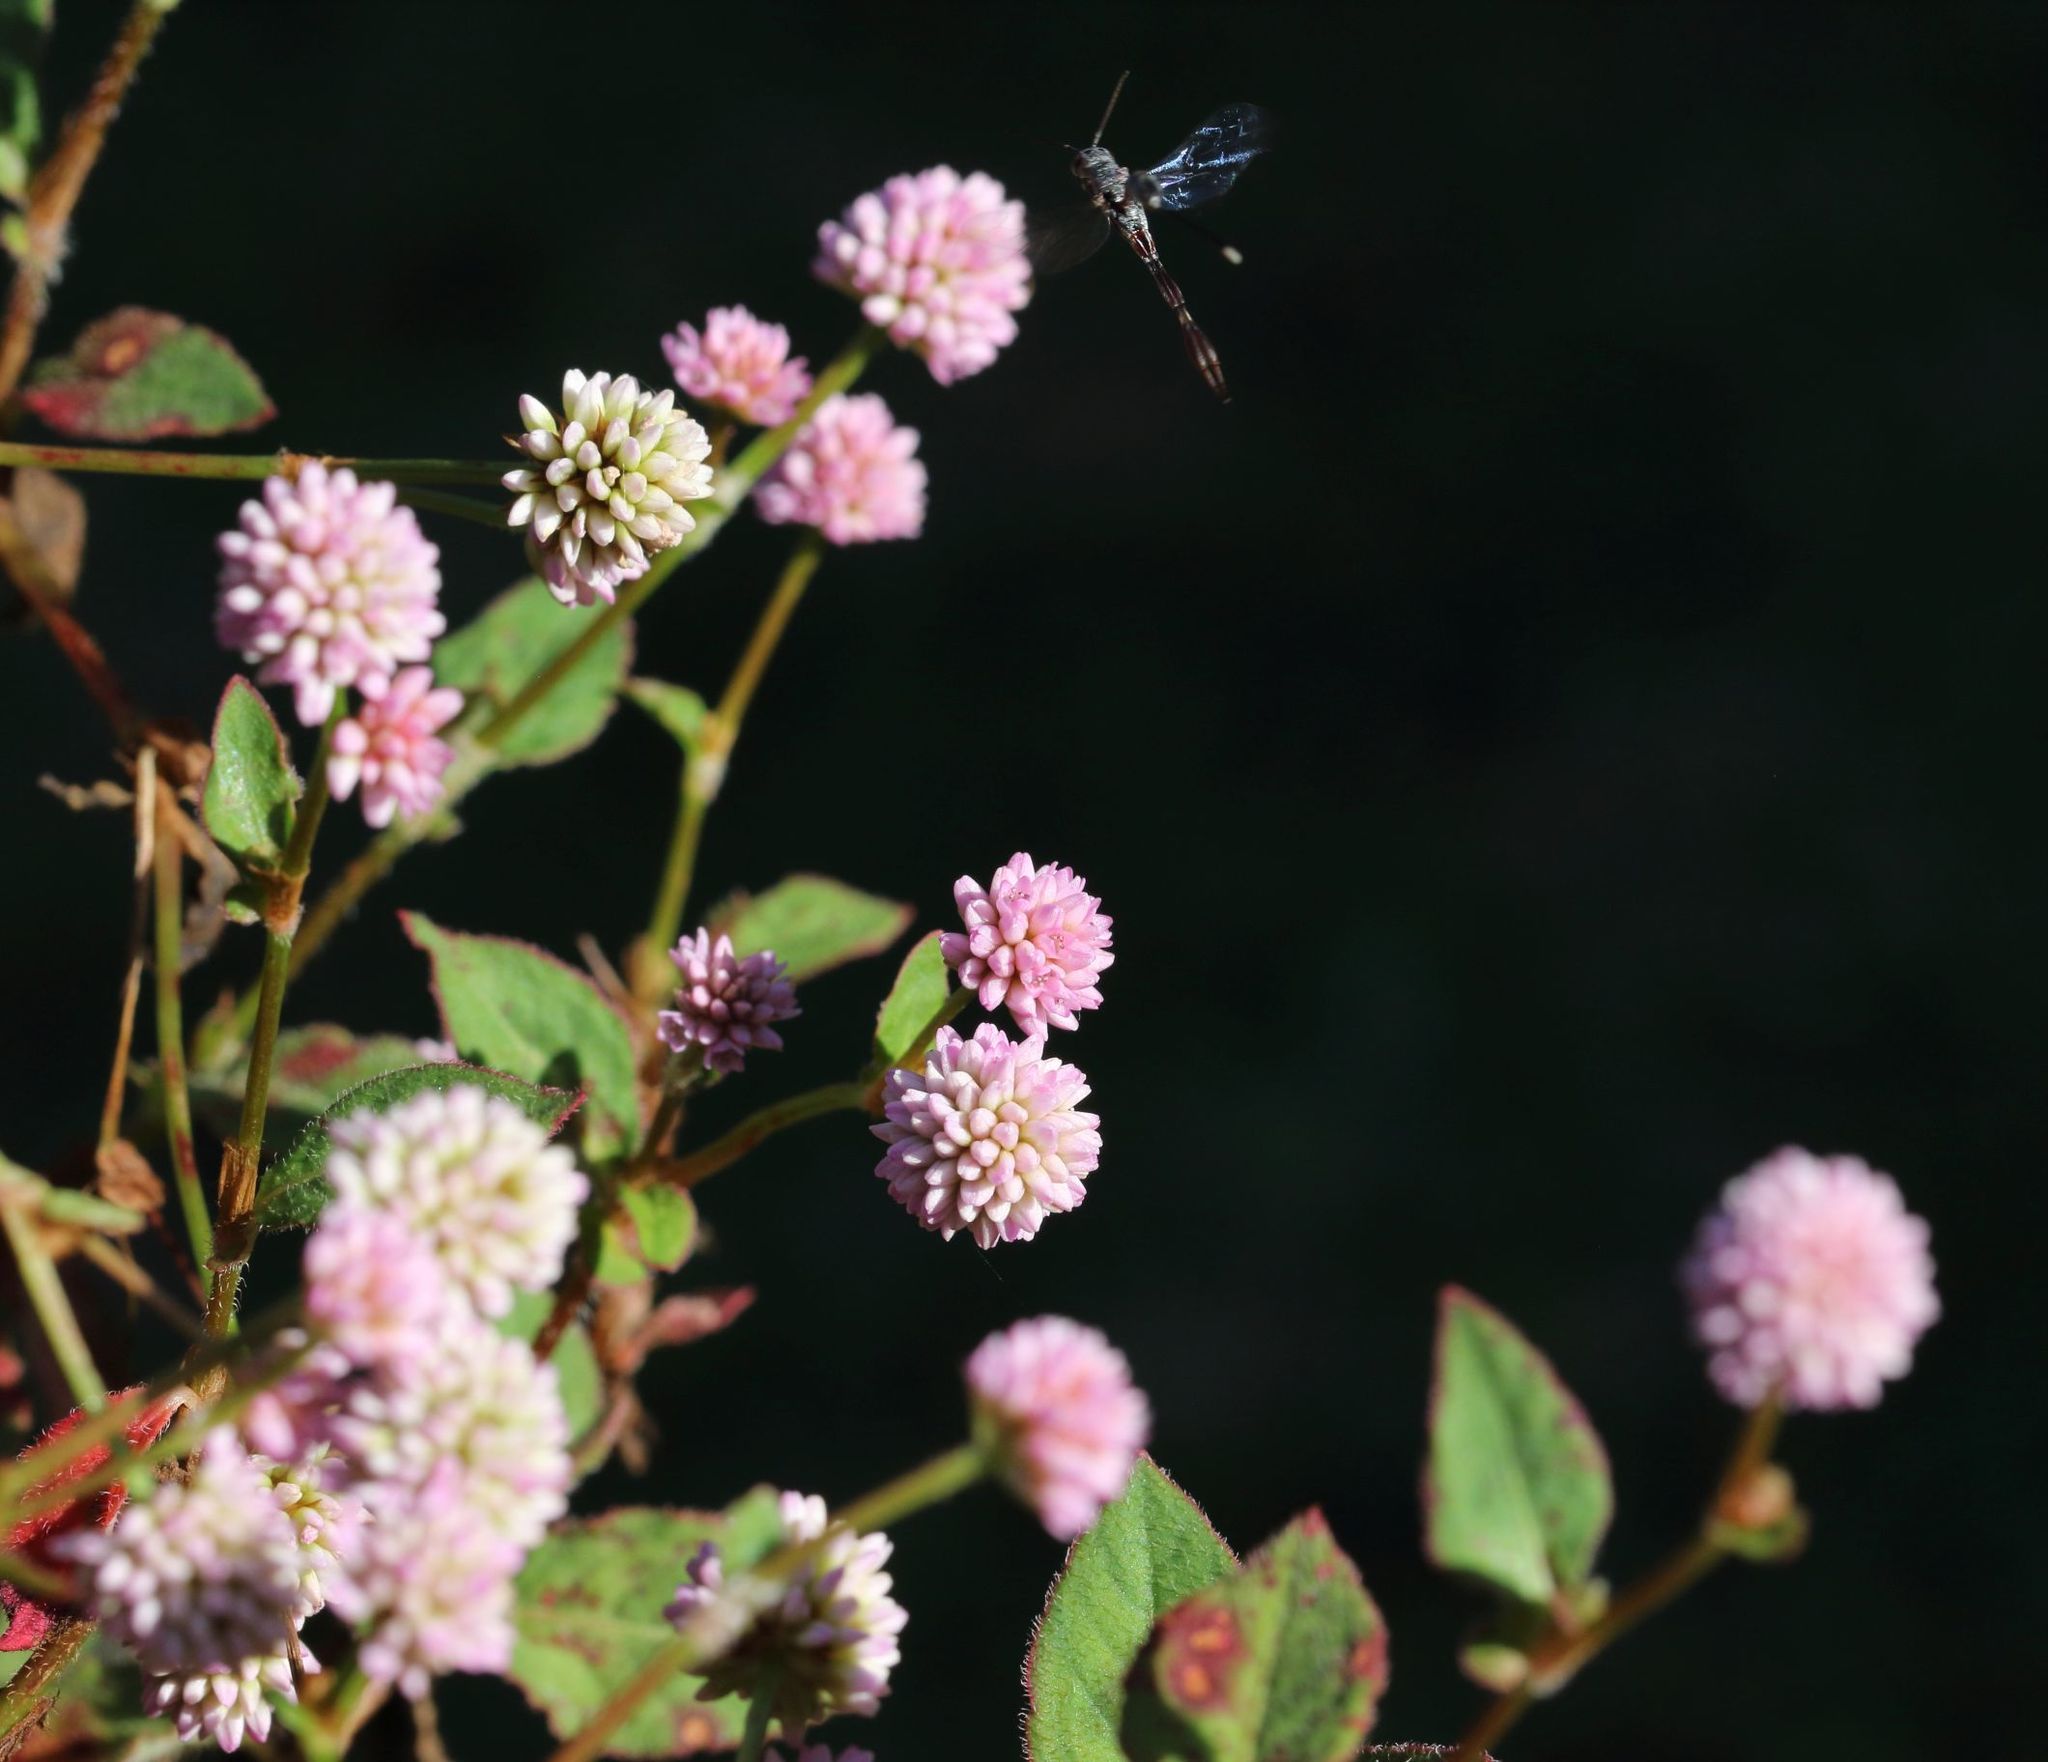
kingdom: Plantae
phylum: Tracheophyta
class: Magnoliopsida
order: Caryophyllales
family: Polygonaceae
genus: Persicaria
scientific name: Persicaria capitata
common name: Pinkhead smartweed
